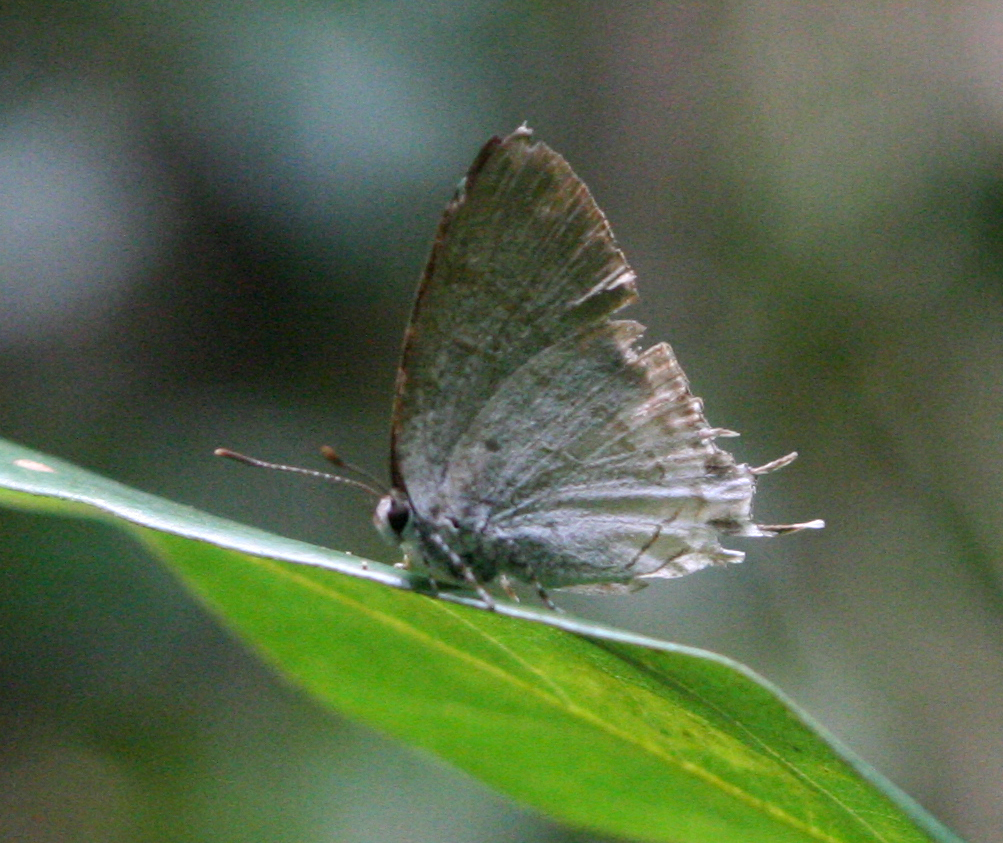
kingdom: Animalia
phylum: Arthropoda
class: Insecta
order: Lepidoptera
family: Lycaenidae
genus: Zeltus
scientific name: Zeltus amasa
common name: Fluffy tit
